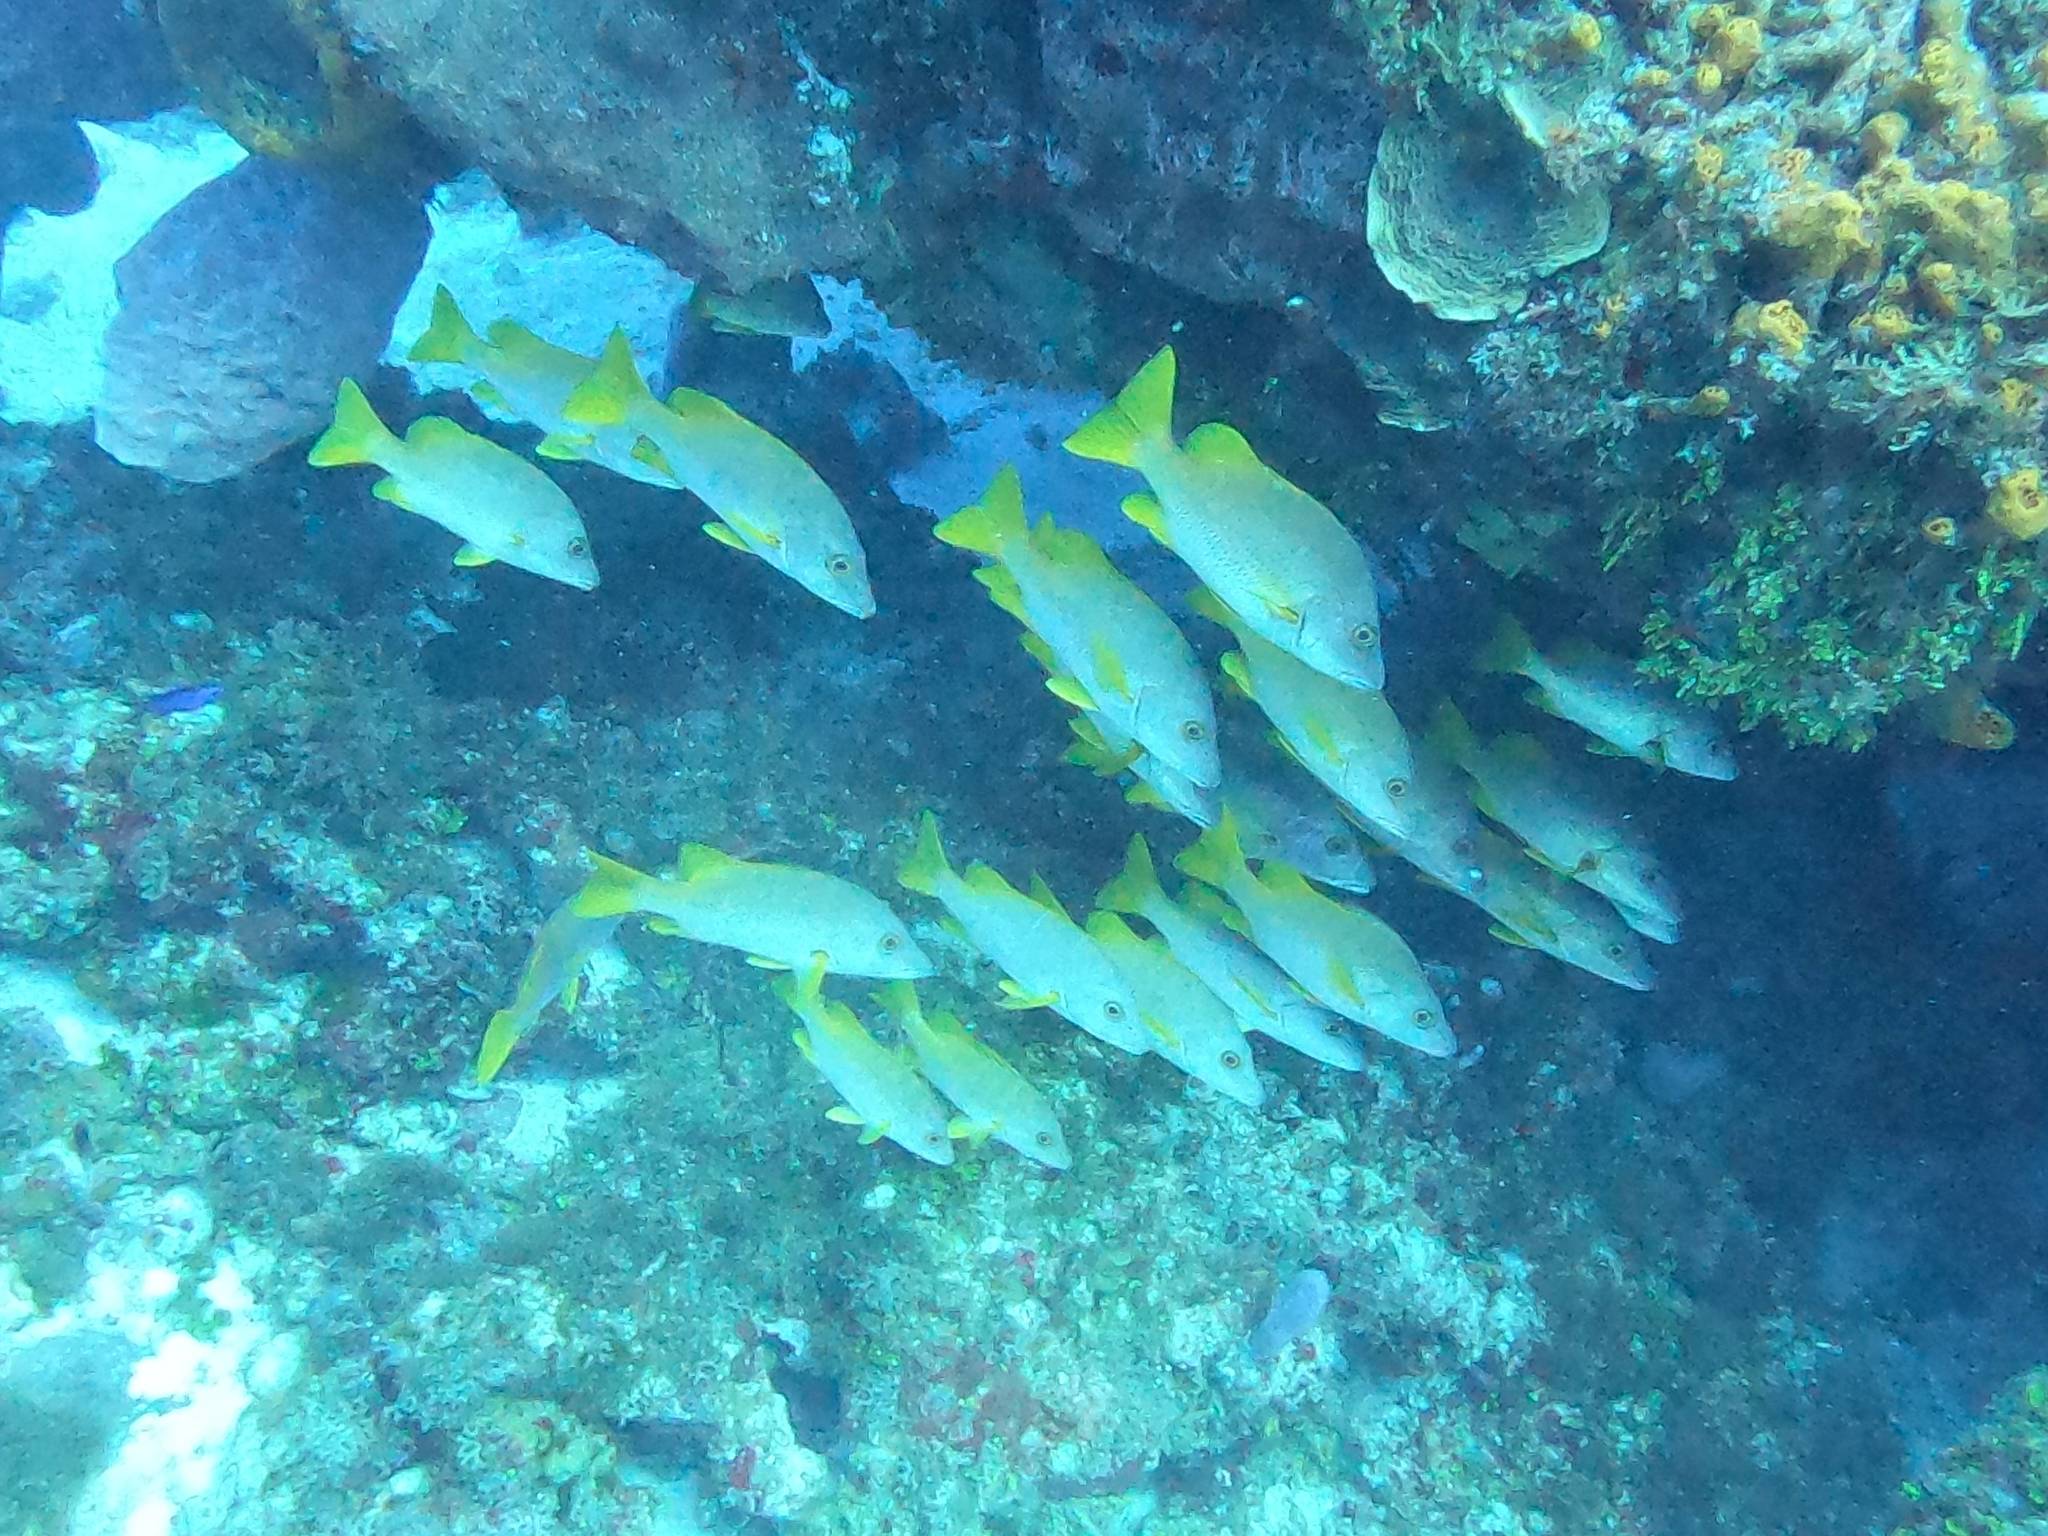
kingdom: Animalia
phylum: Chordata
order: Perciformes
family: Lutjanidae
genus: Lutjanus
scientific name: Lutjanus apodus
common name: Schoolmaster
